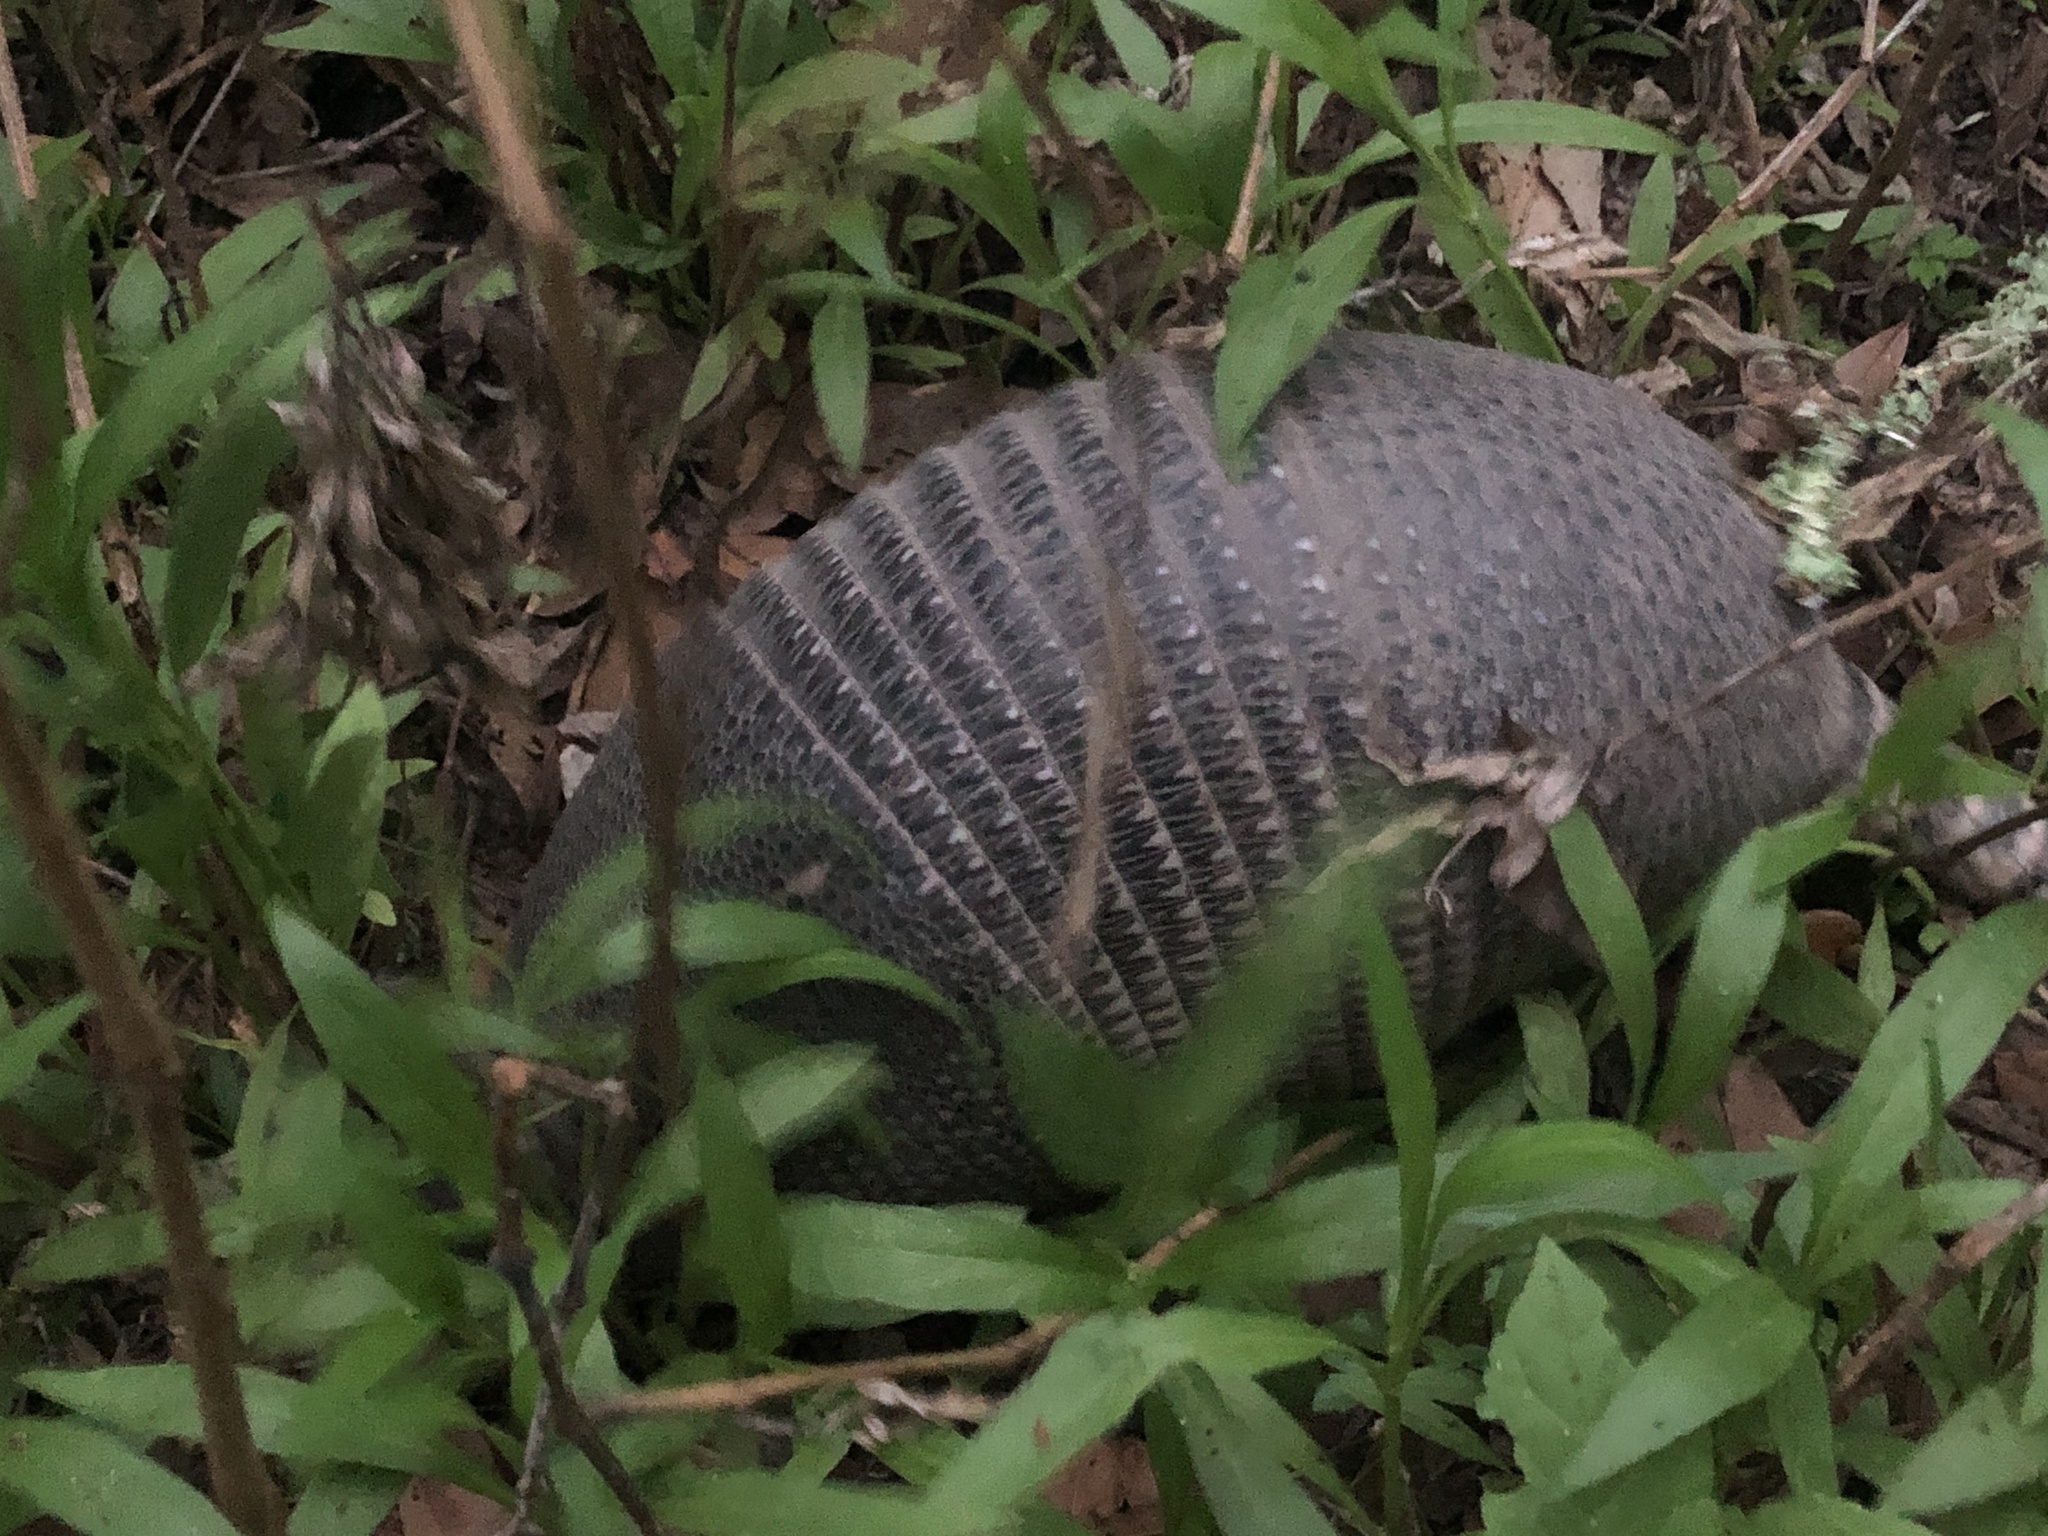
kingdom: Animalia
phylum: Chordata
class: Mammalia
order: Cingulata
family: Dasypodidae
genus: Dasypus
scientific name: Dasypus novemcinctus
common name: Nine-banded armadillo
